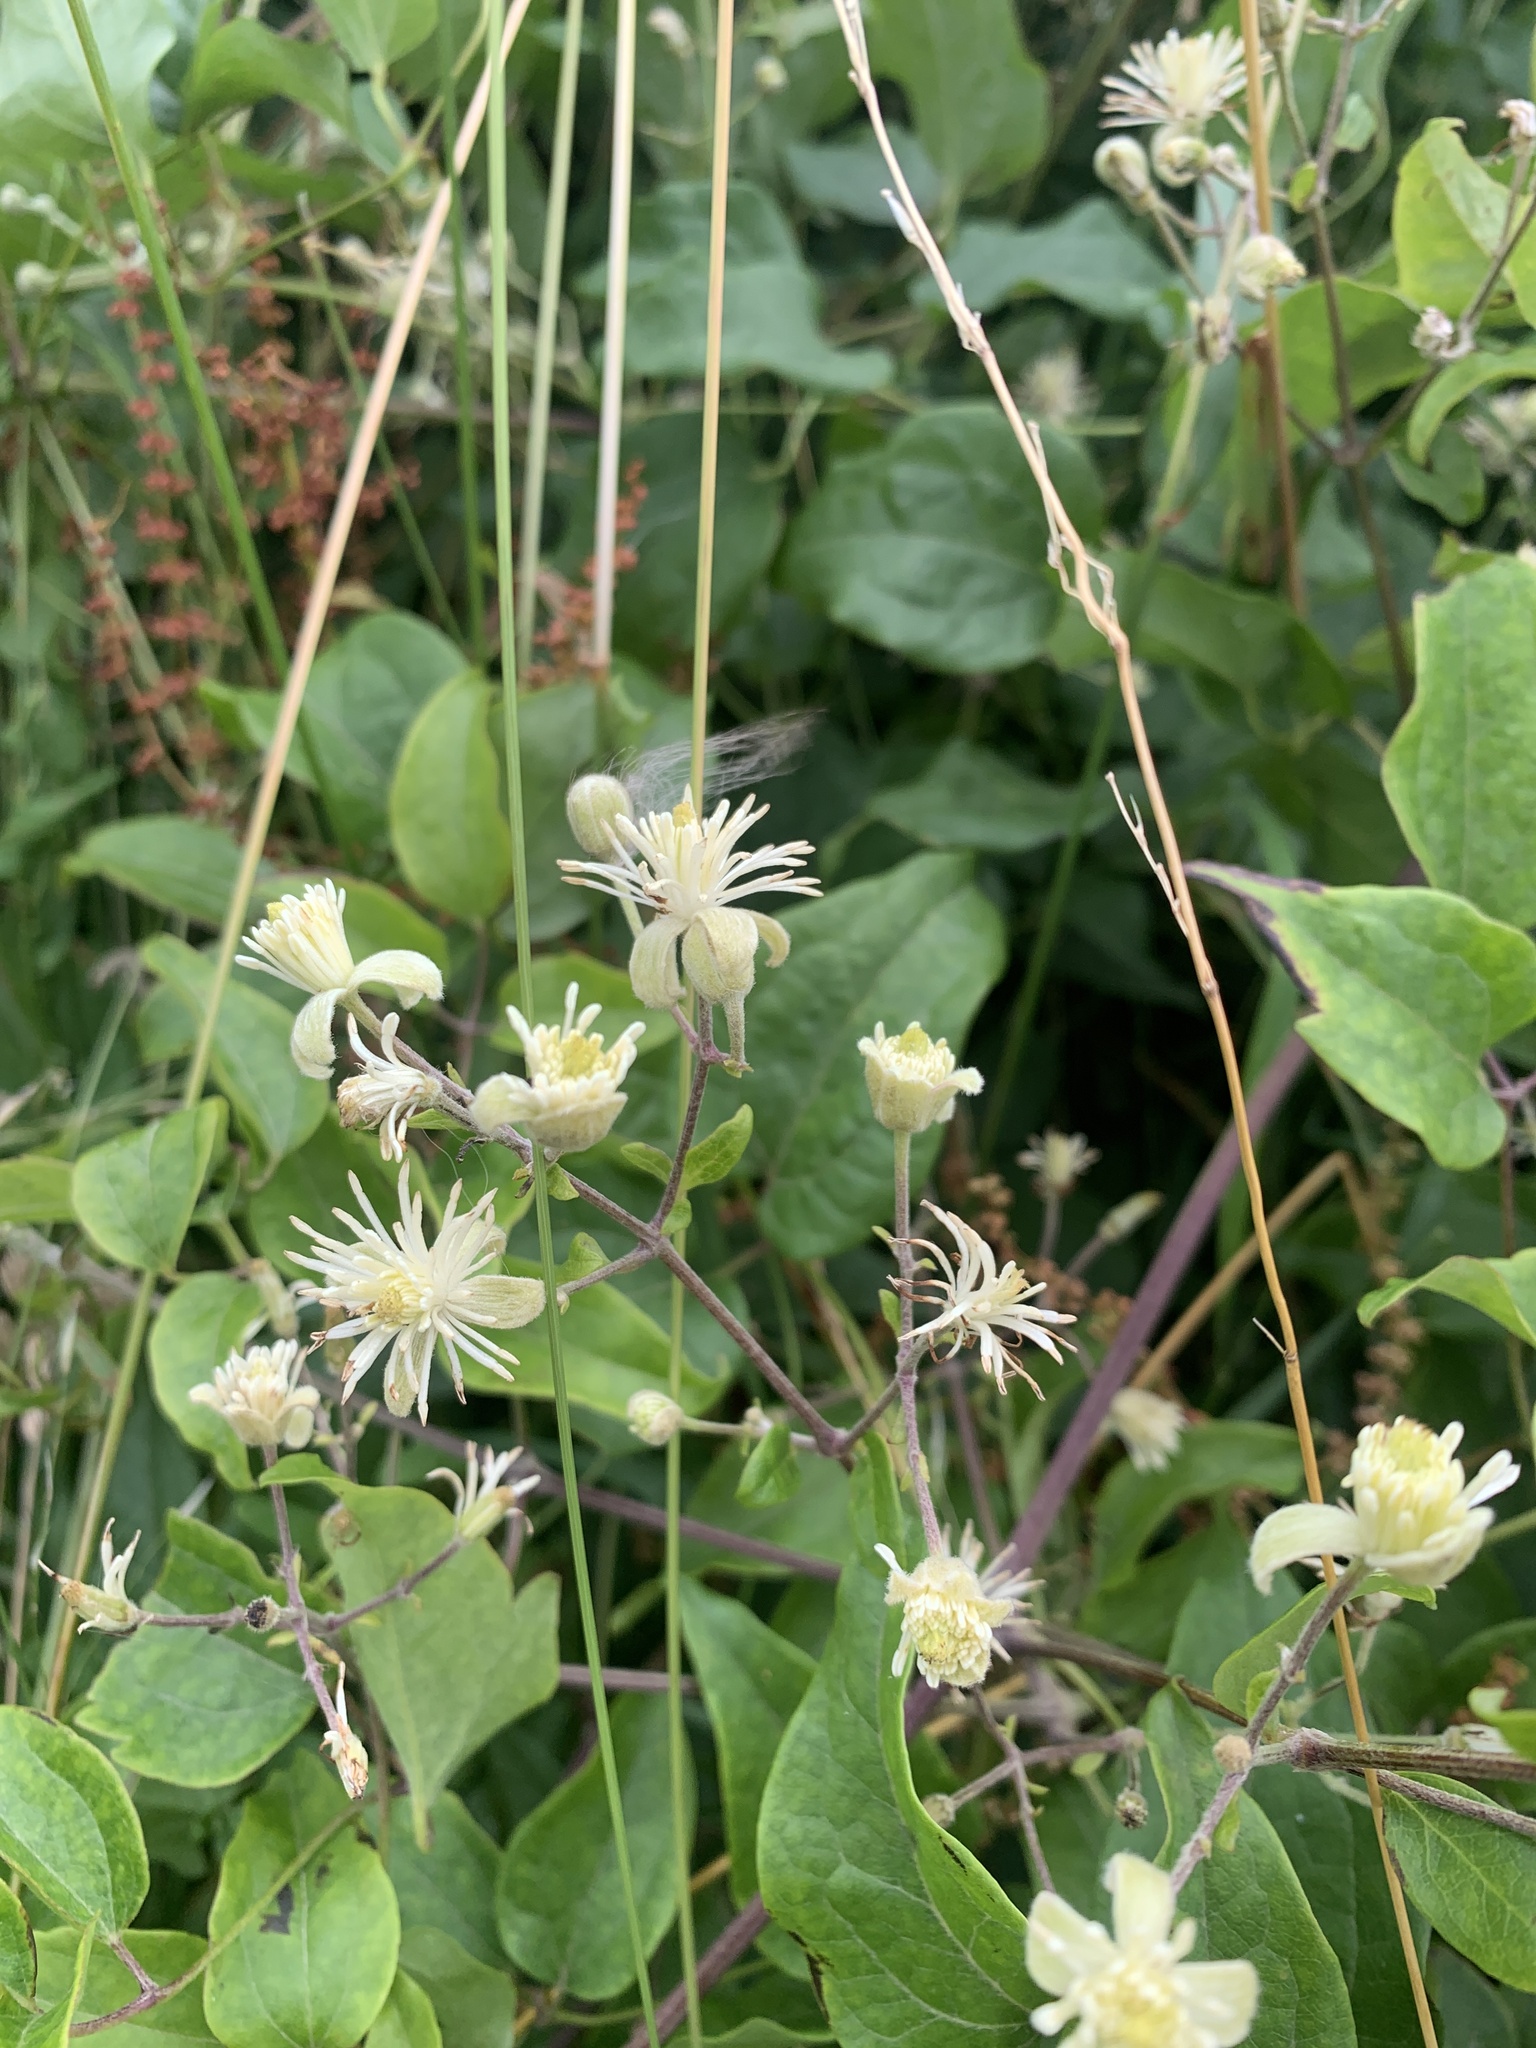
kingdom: Plantae
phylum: Tracheophyta
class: Magnoliopsida
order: Ranunculales
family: Ranunculaceae
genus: Clematis
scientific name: Clematis vitalba
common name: Evergreen clematis
